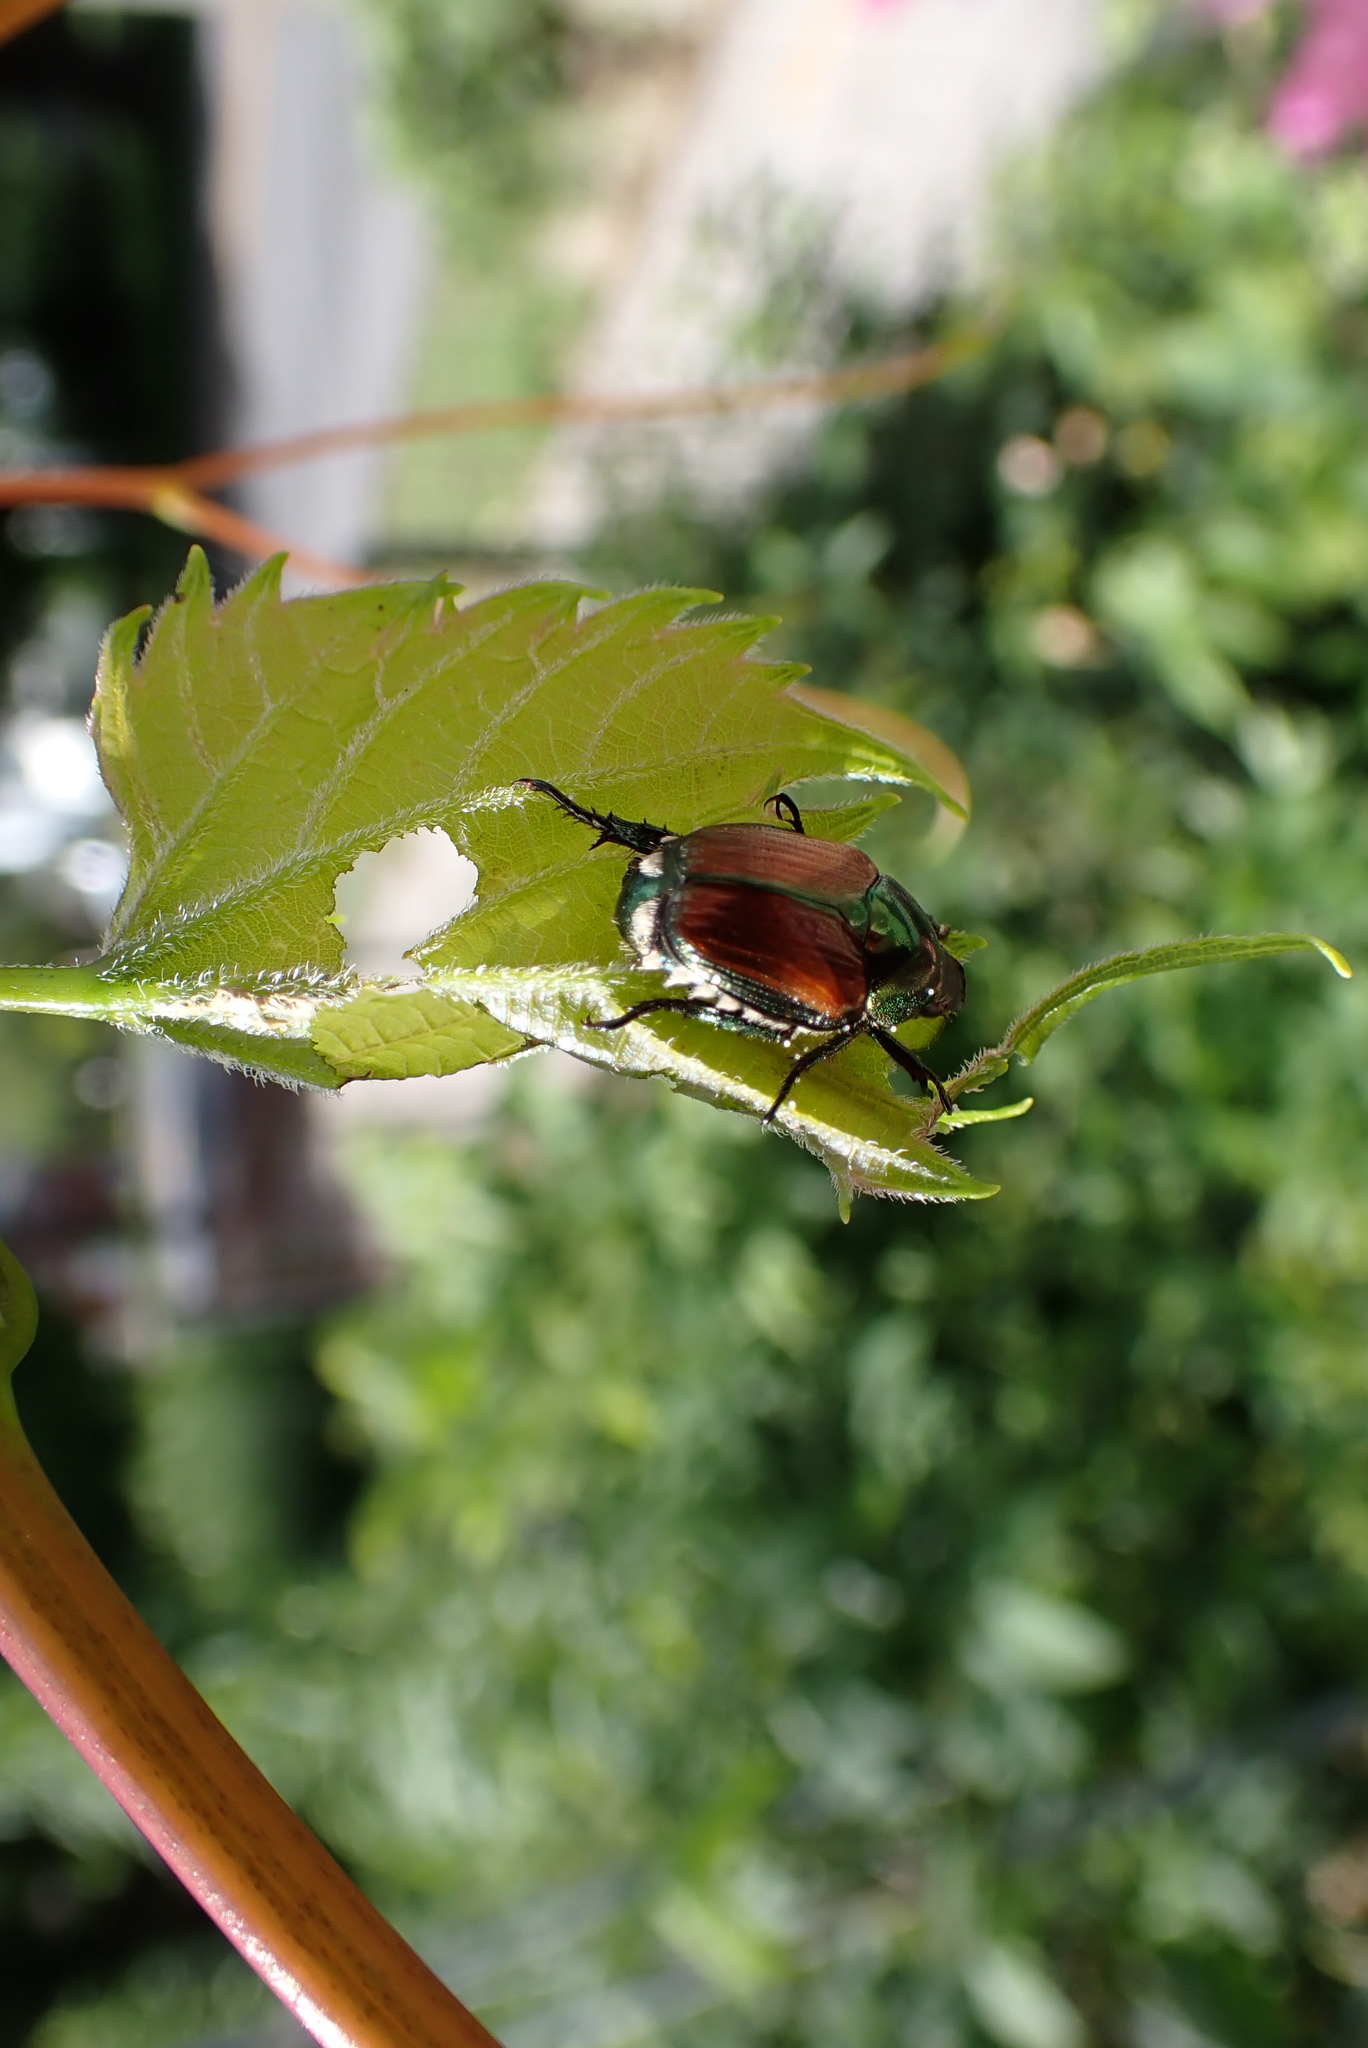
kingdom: Animalia
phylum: Arthropoda
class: Insecta
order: Coleoptera
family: Scarabaeidae
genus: Popillia
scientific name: Popillia japonica
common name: Japanese beetle
